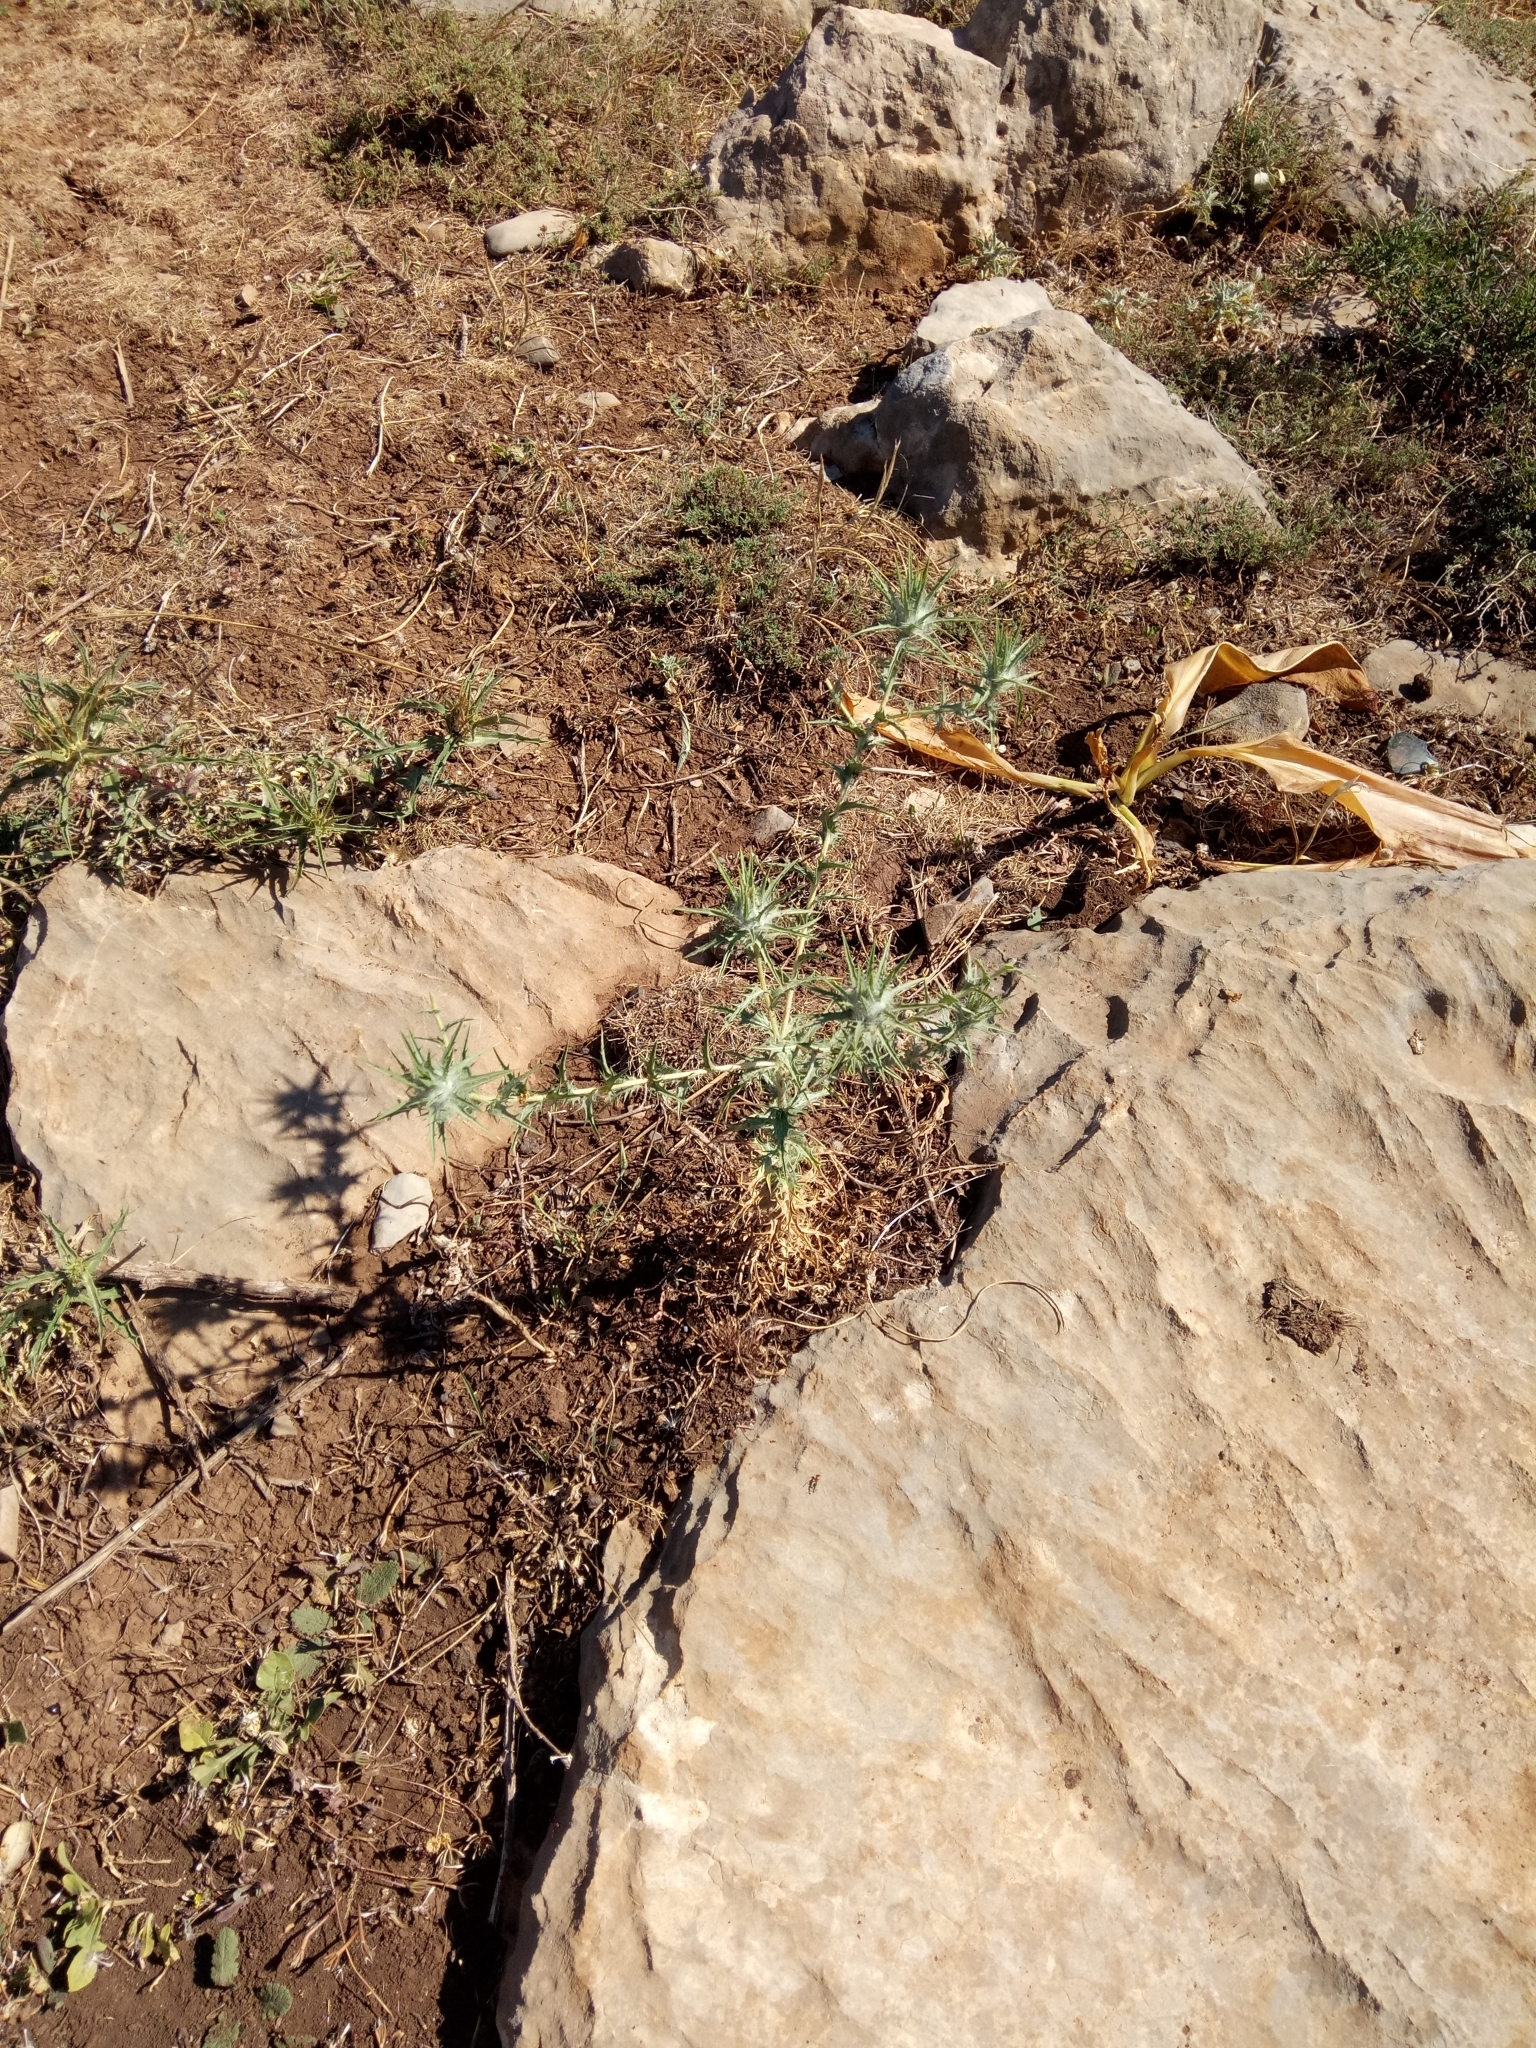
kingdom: Plantae
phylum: Tracheophyta
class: Magnoliopsida
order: Asterales
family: Asteraceae
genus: Carthamus
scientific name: Carthamus lanatus
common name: Downy safflower
